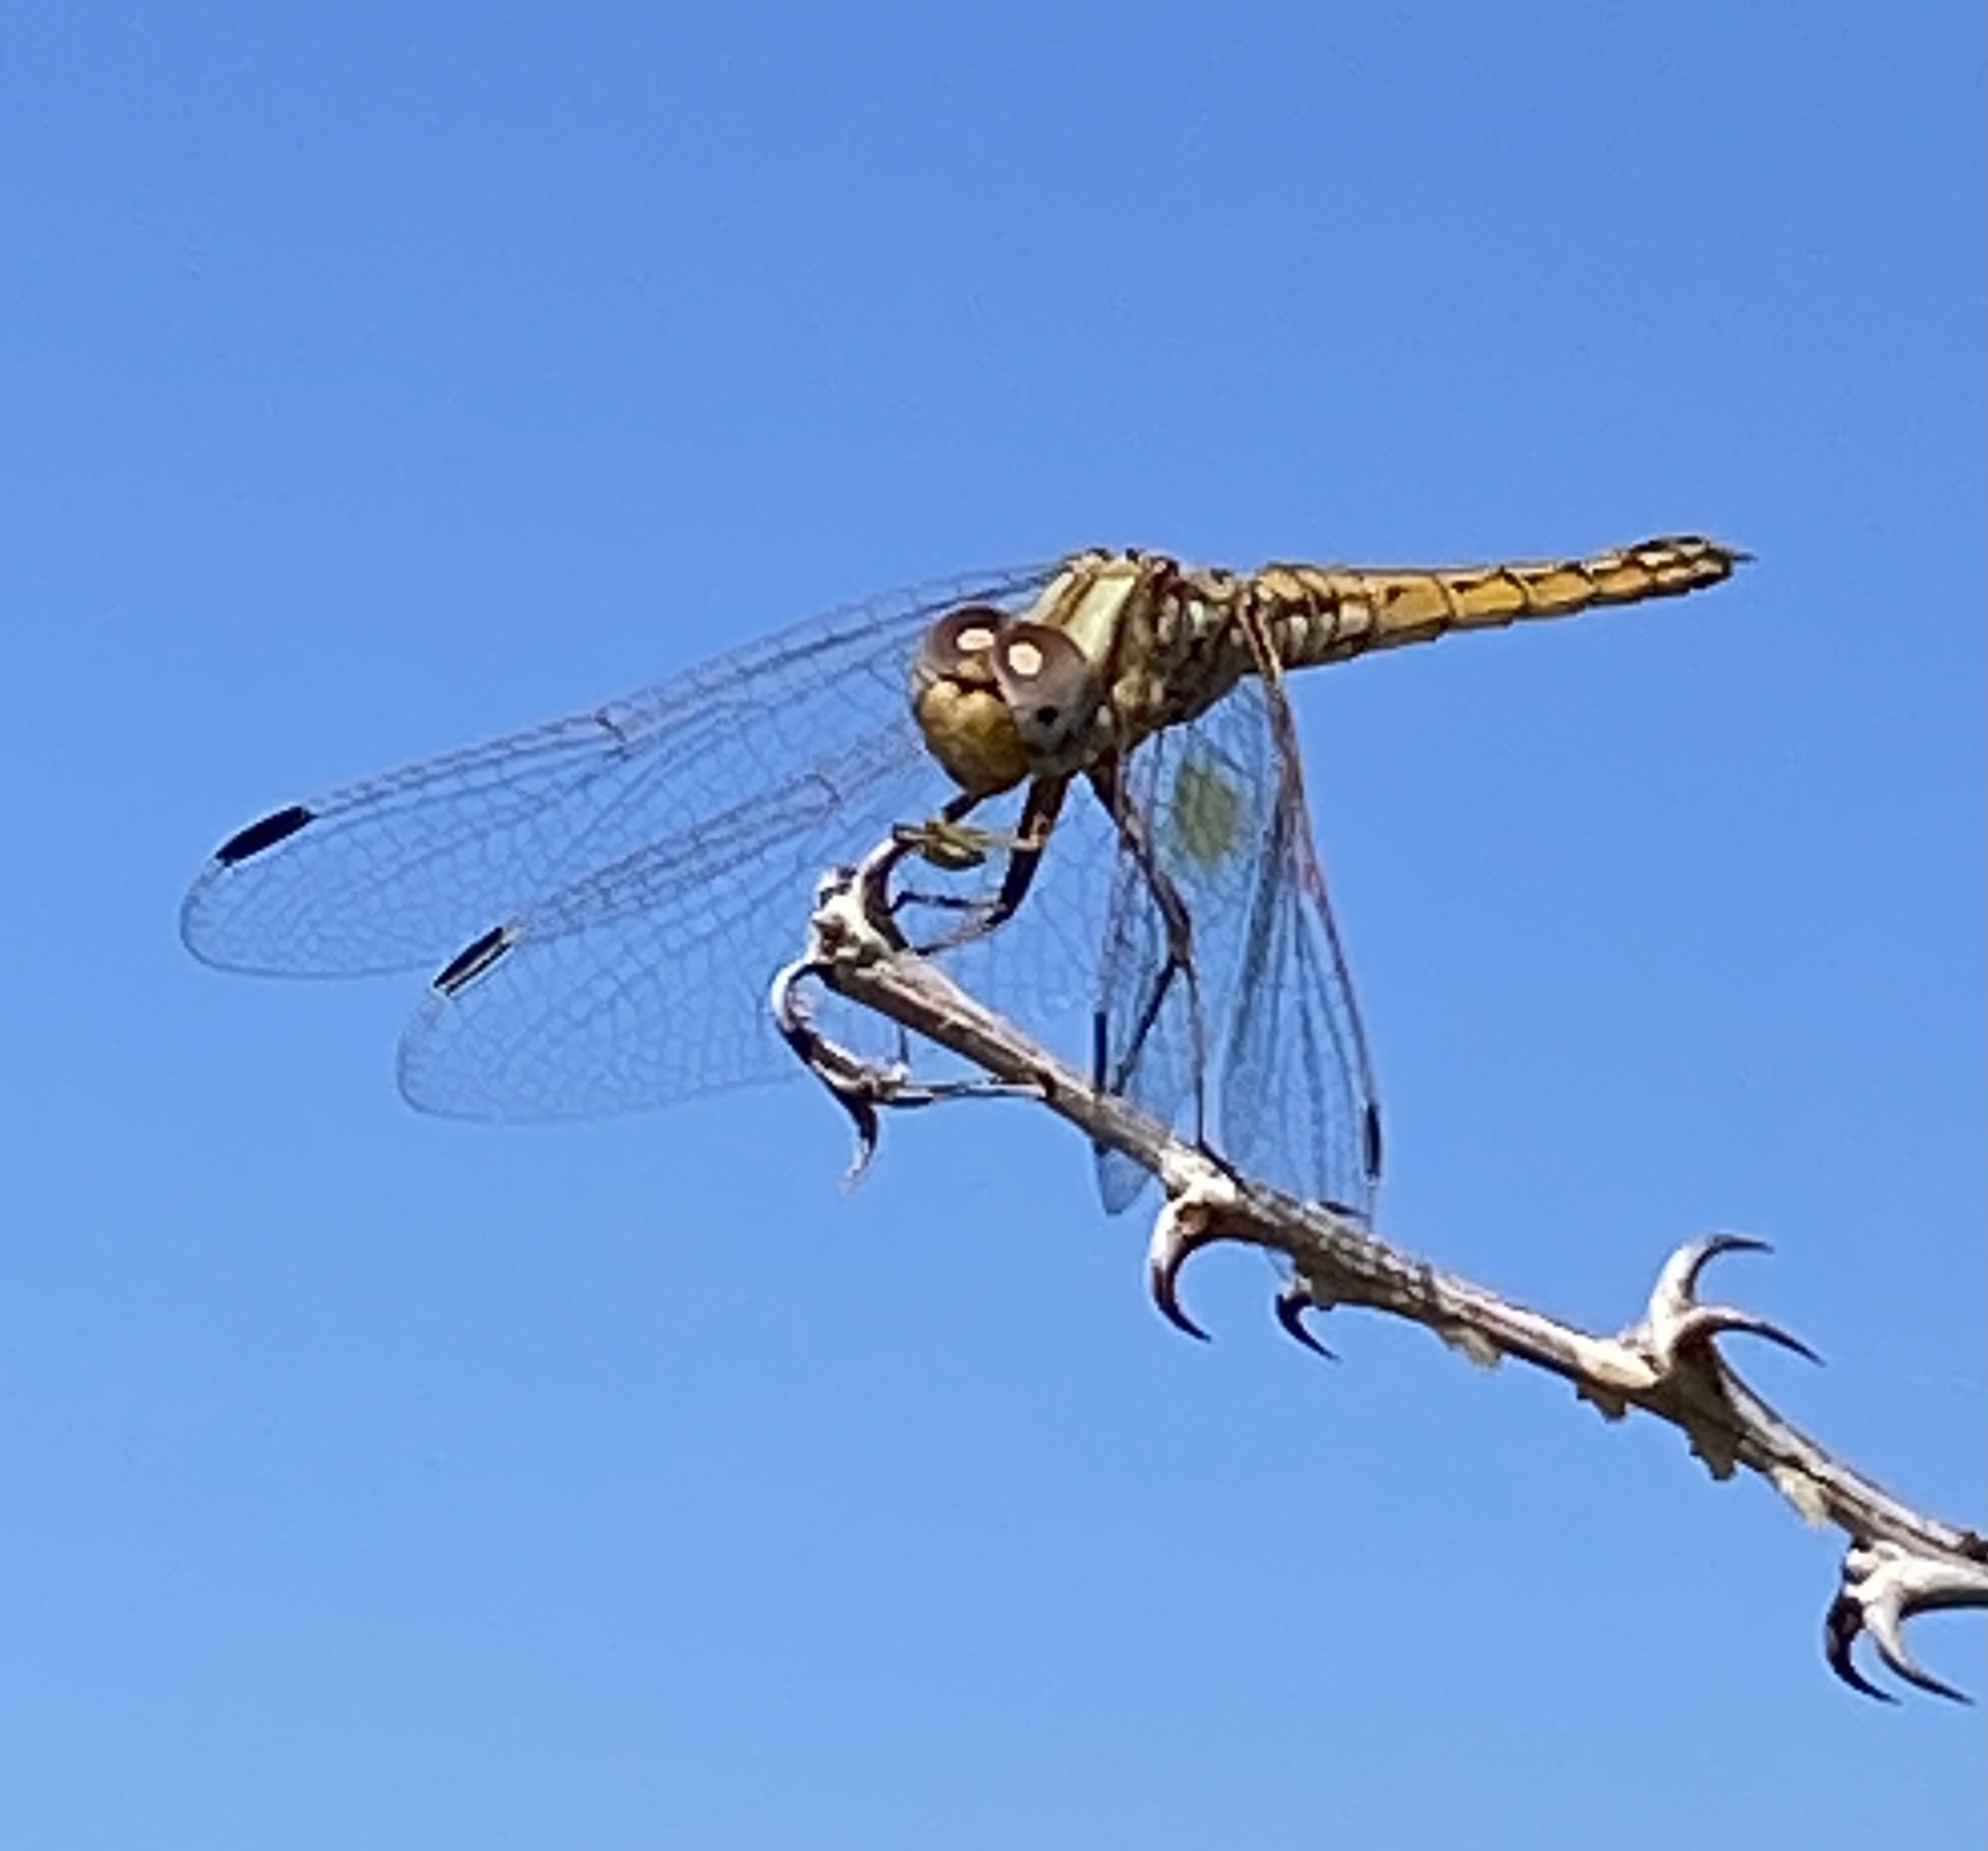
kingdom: Animalia
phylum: Arthropoda
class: Insecta
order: Odonata
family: Libellulidae
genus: Trithemis
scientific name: Trithemis kirbyi
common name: Kirby's dropwing
